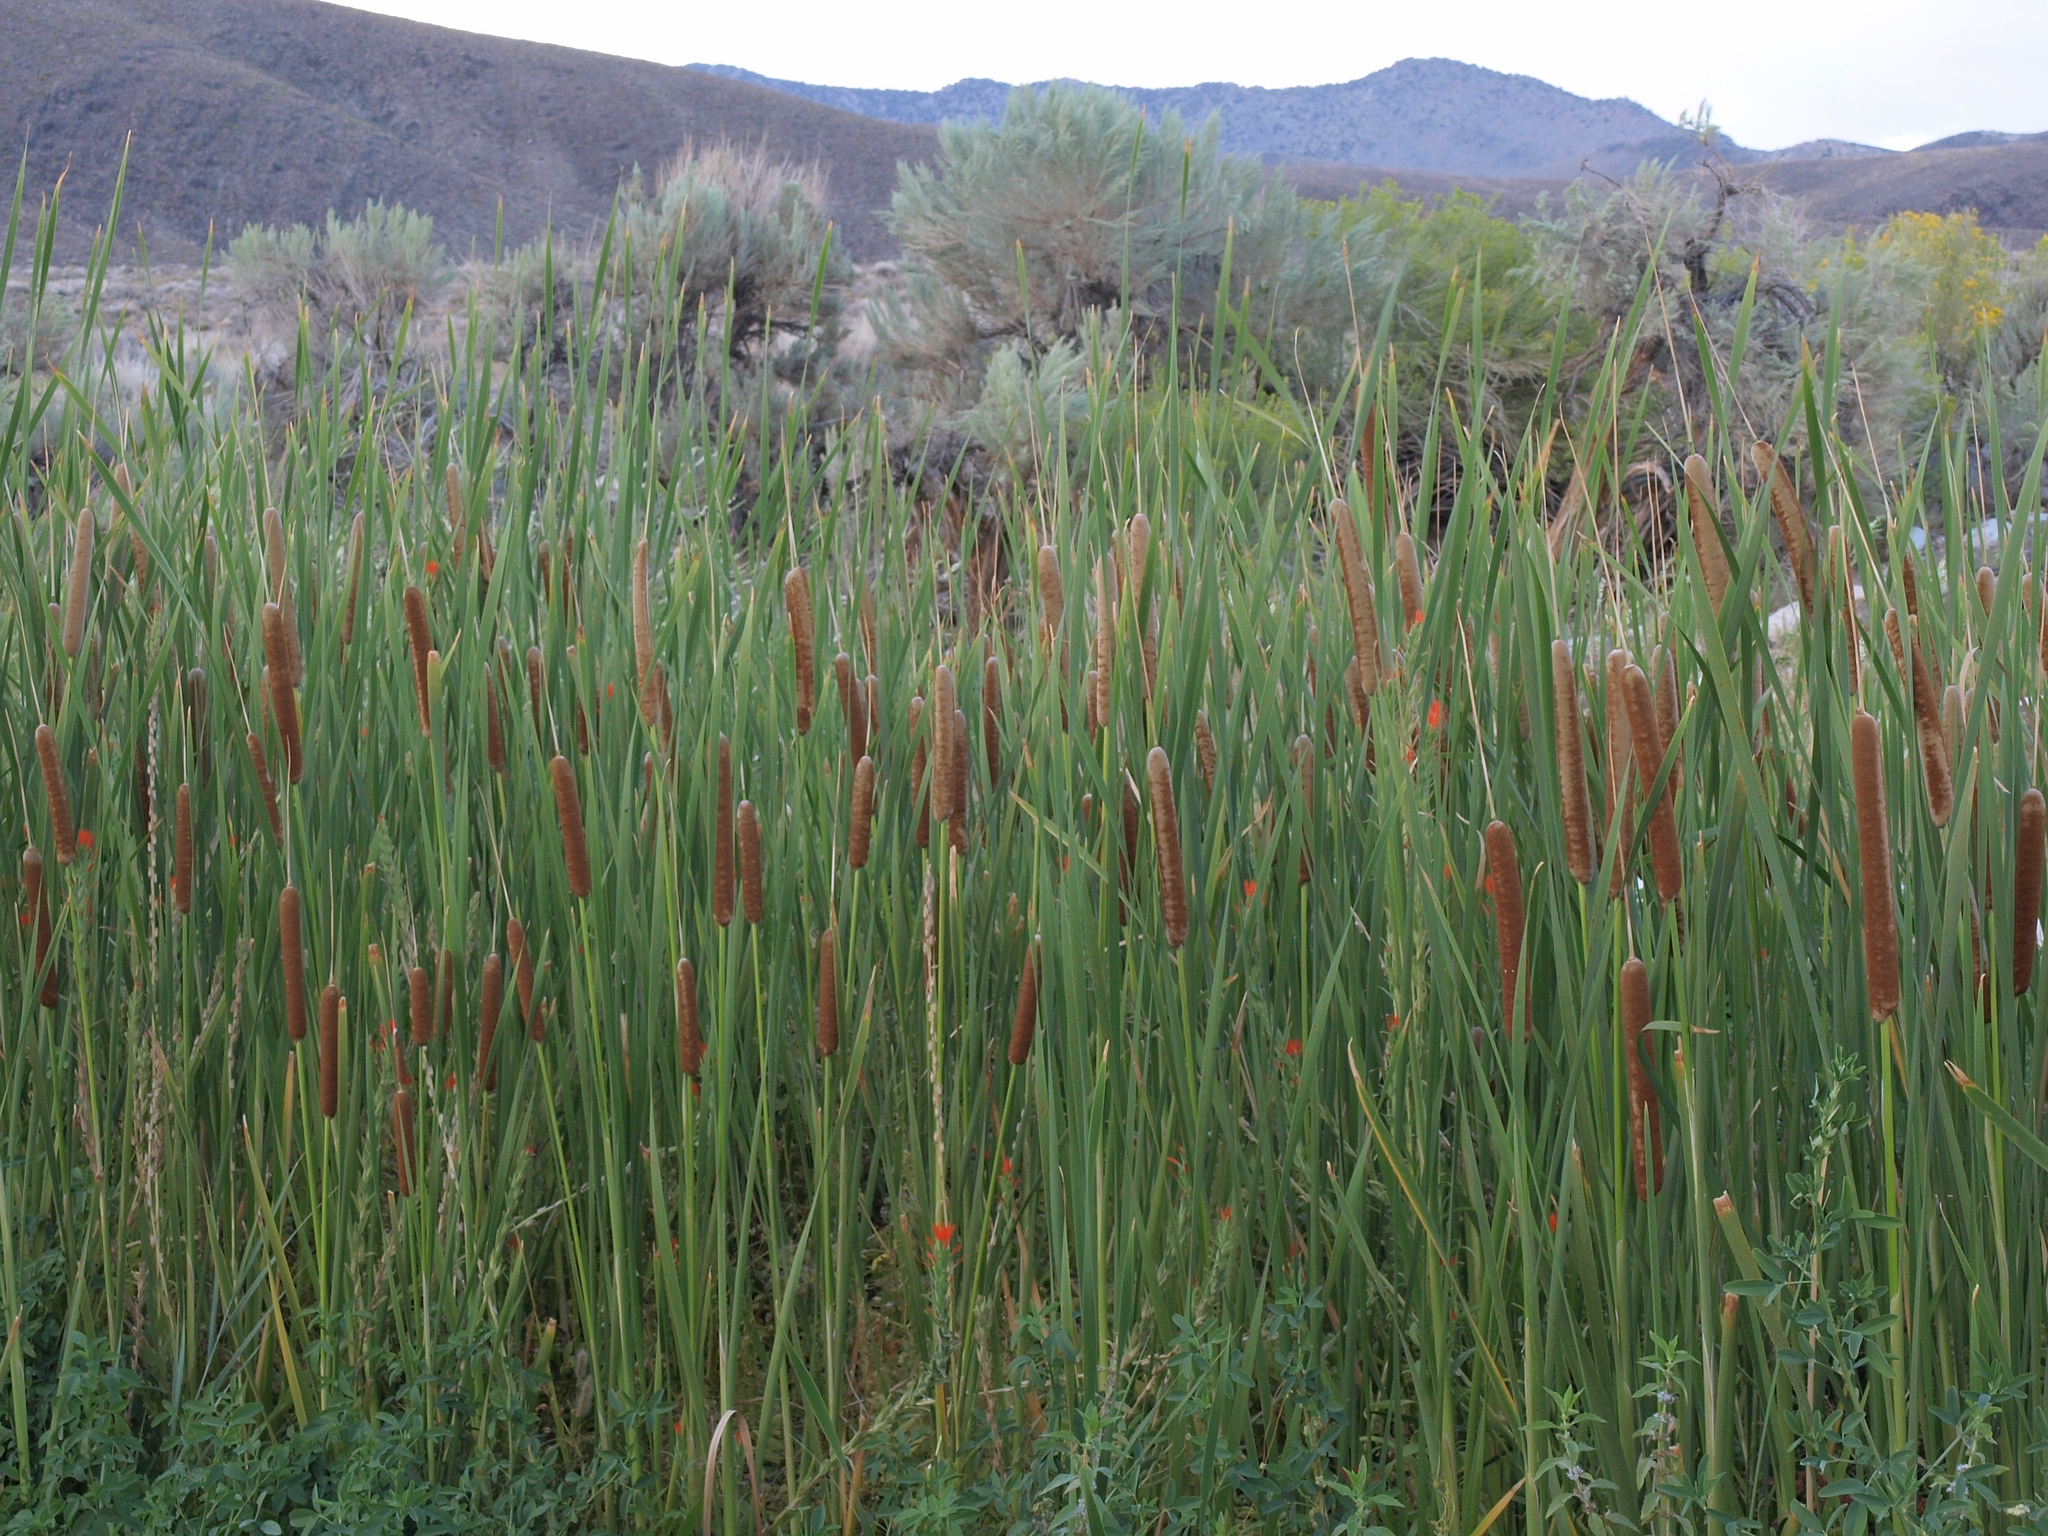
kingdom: Plantae
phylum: Tracheophyta
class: Liliopsida
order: Poales
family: Typhaceae
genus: Typha
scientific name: Typha domingensis
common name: Southern cattail
